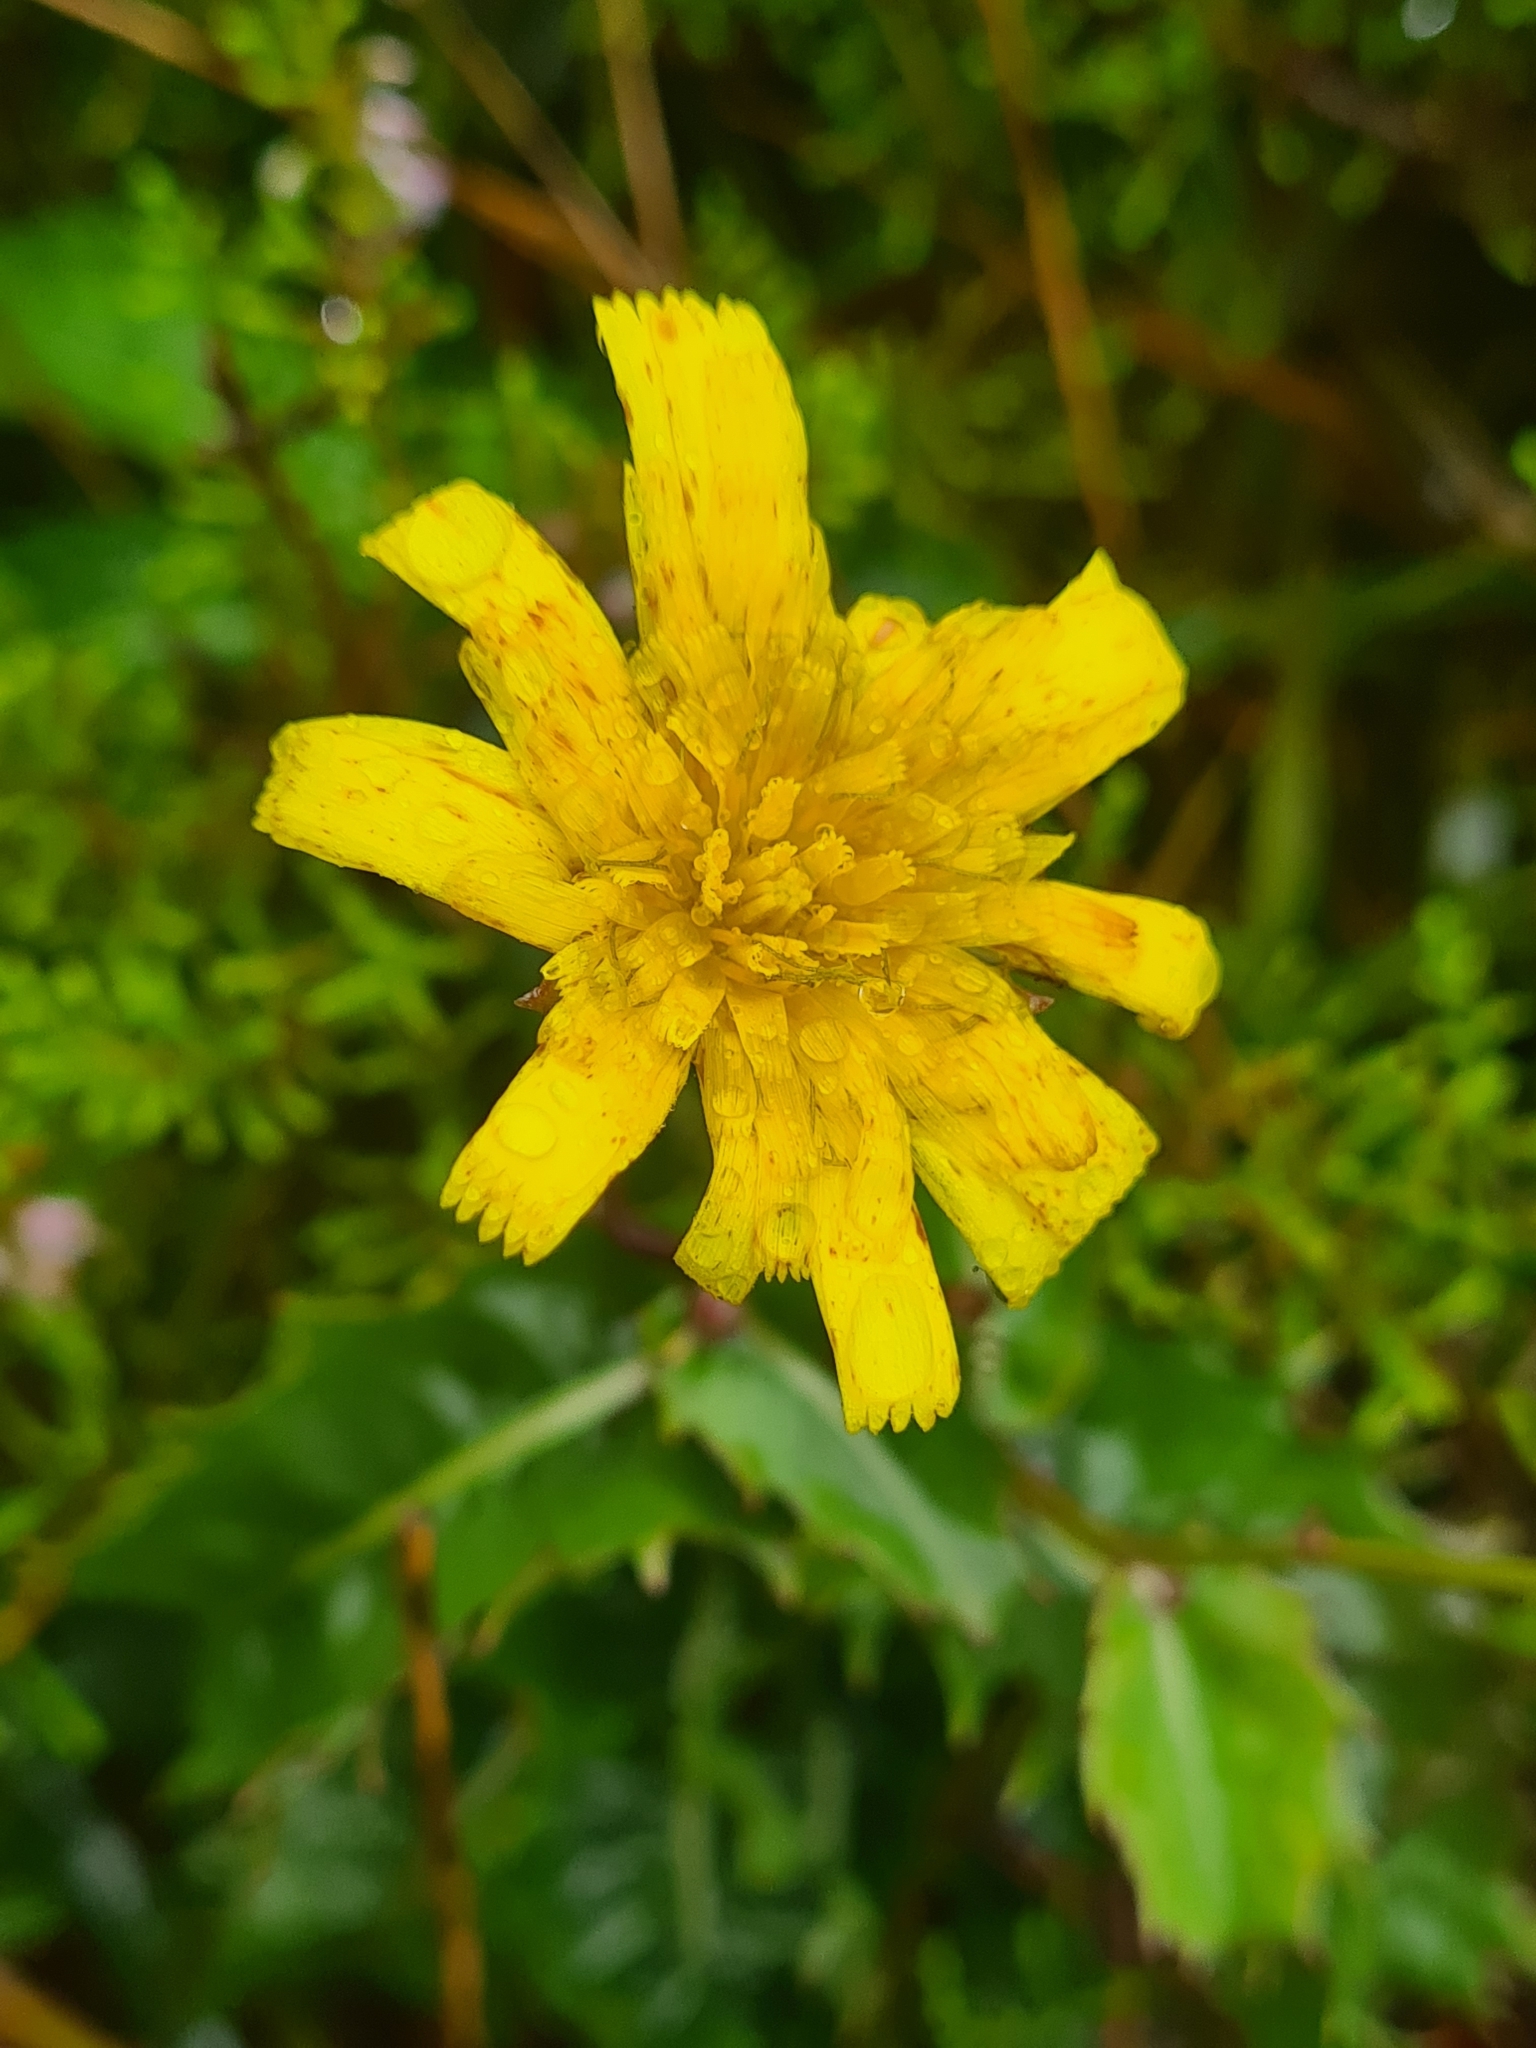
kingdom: Plantae
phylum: Tracheophyta
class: Magnoliopsida
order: Asterales
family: Asteraceae
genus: Tolpis
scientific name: Tolpis azorica
